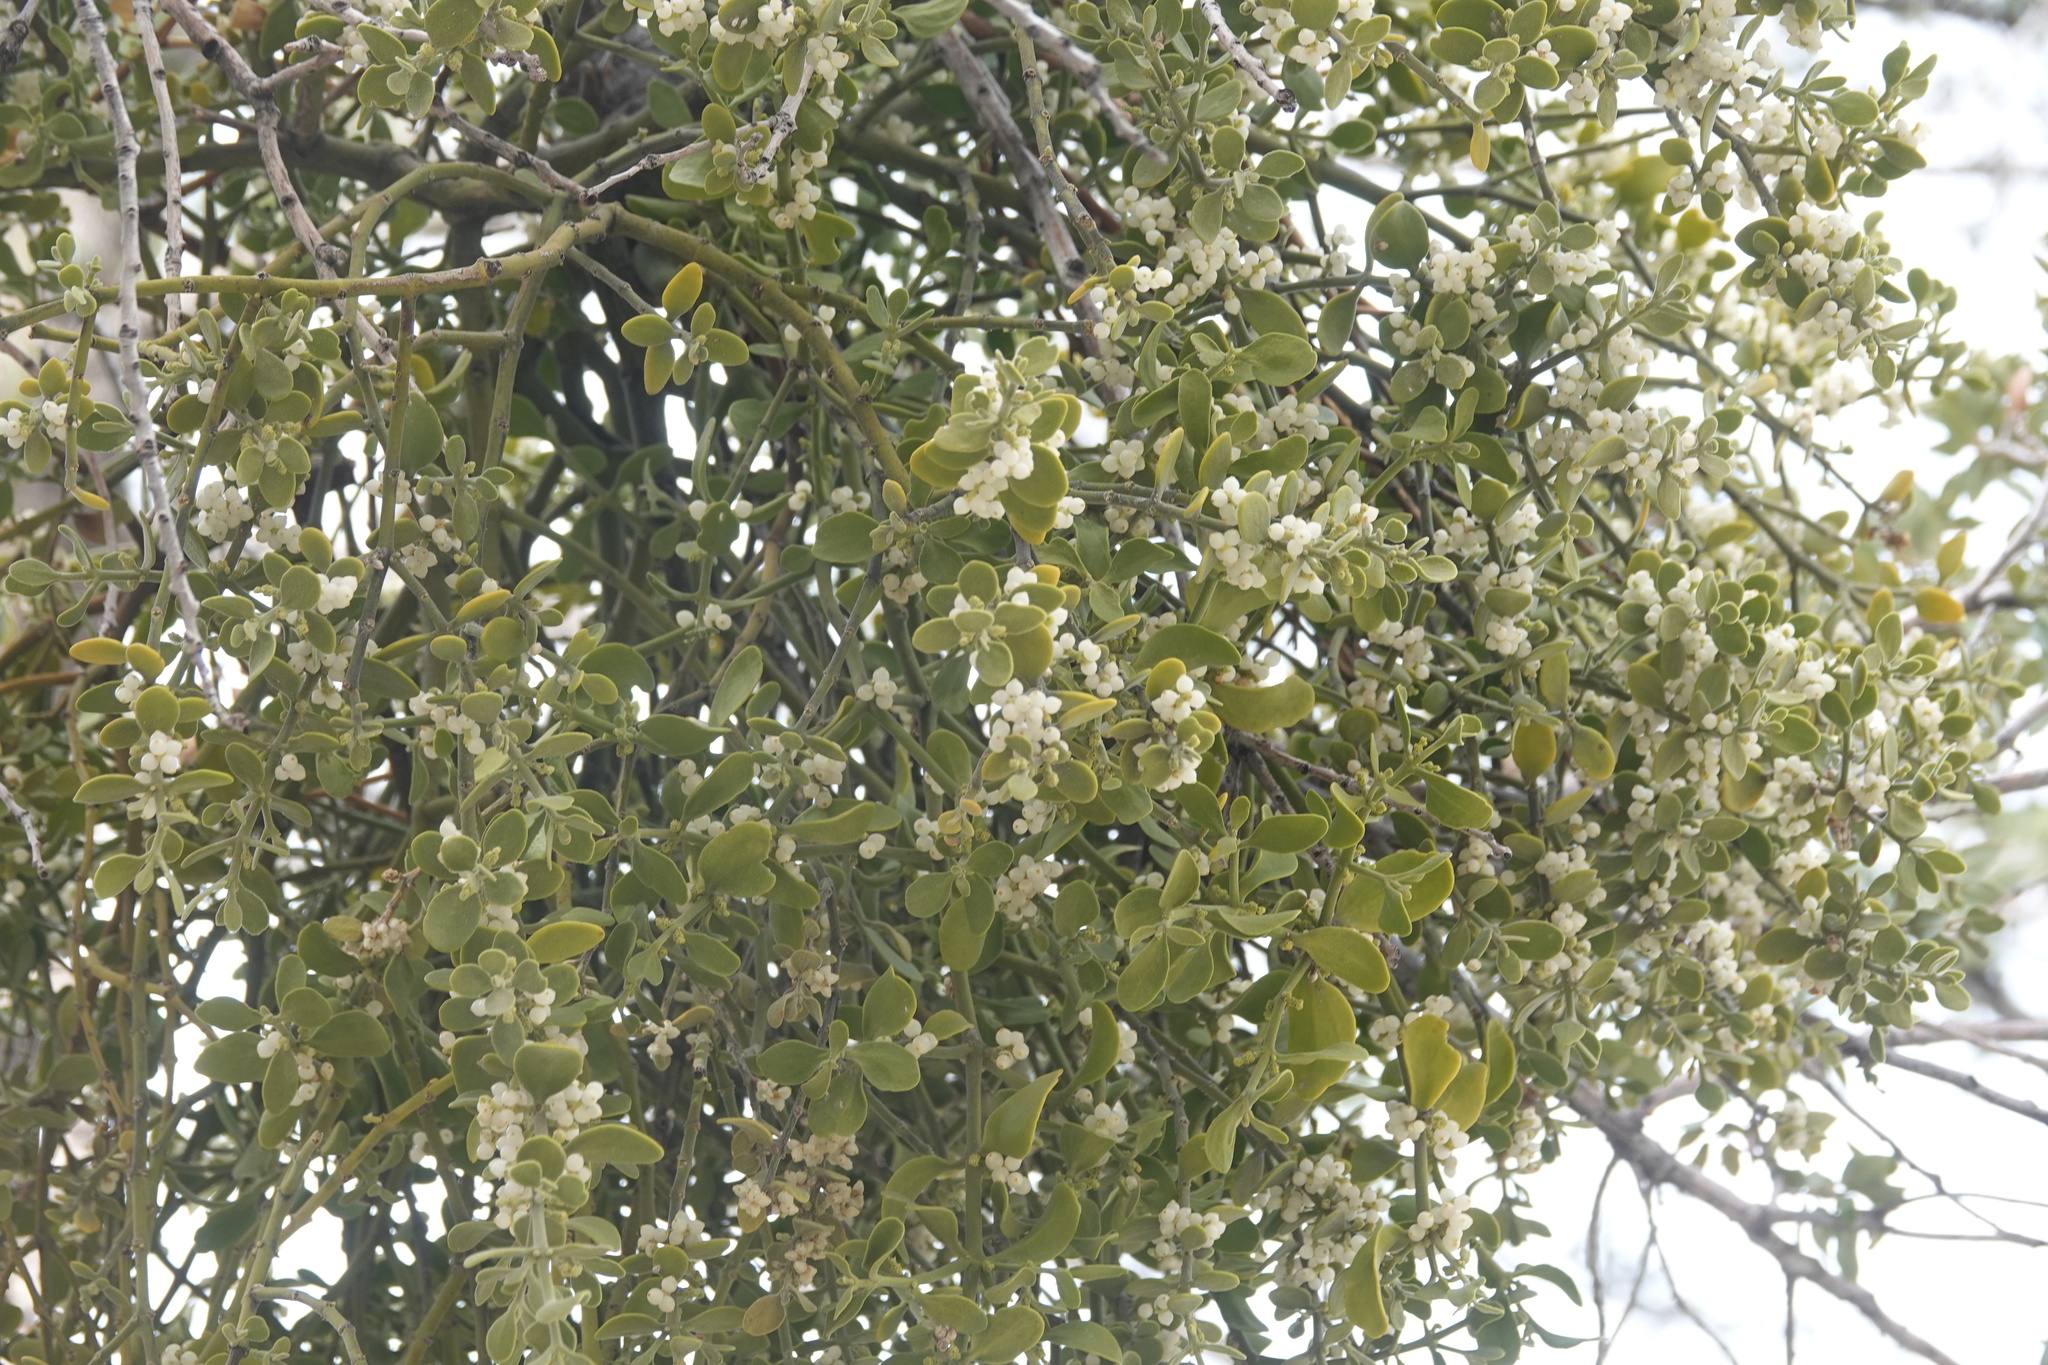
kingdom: Plantae
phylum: Tracheophyta
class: Magnoliopsida
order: Santalales
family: Viscaceae
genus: Phoradendron
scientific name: Phoradendron leucarpum
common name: Pacific mistletoe
